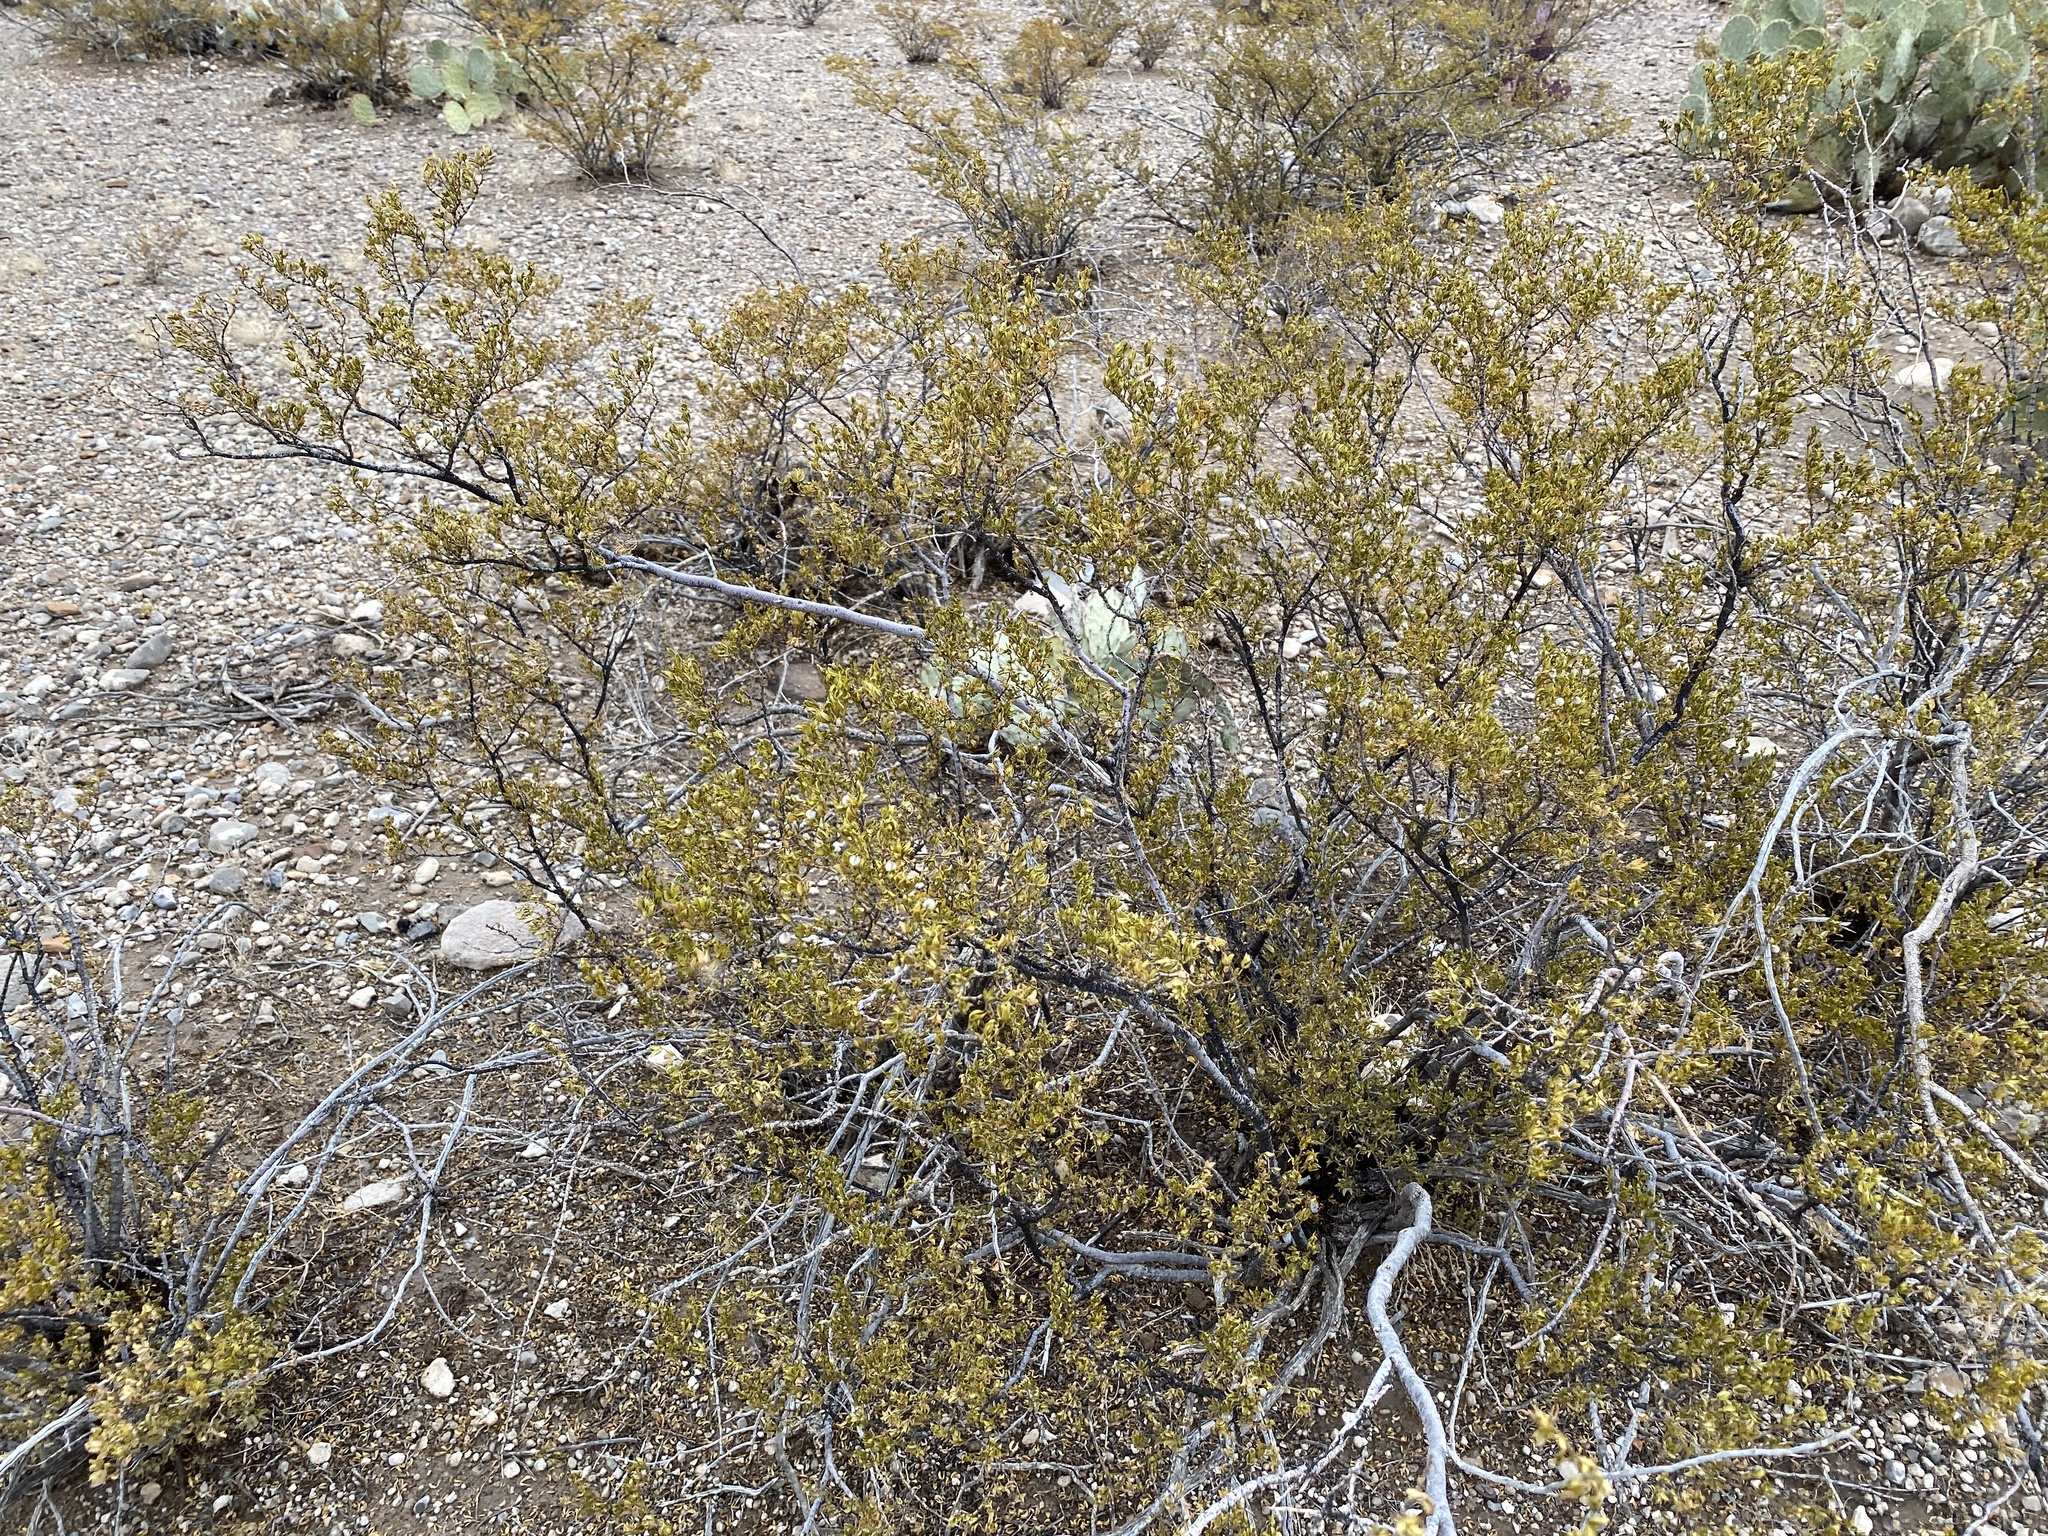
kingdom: Plantae
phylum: Tracheophyta
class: Magnoliopsida
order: Zygophyllales
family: Zygophyllaceae
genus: Larrea
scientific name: Larrea tridentata
